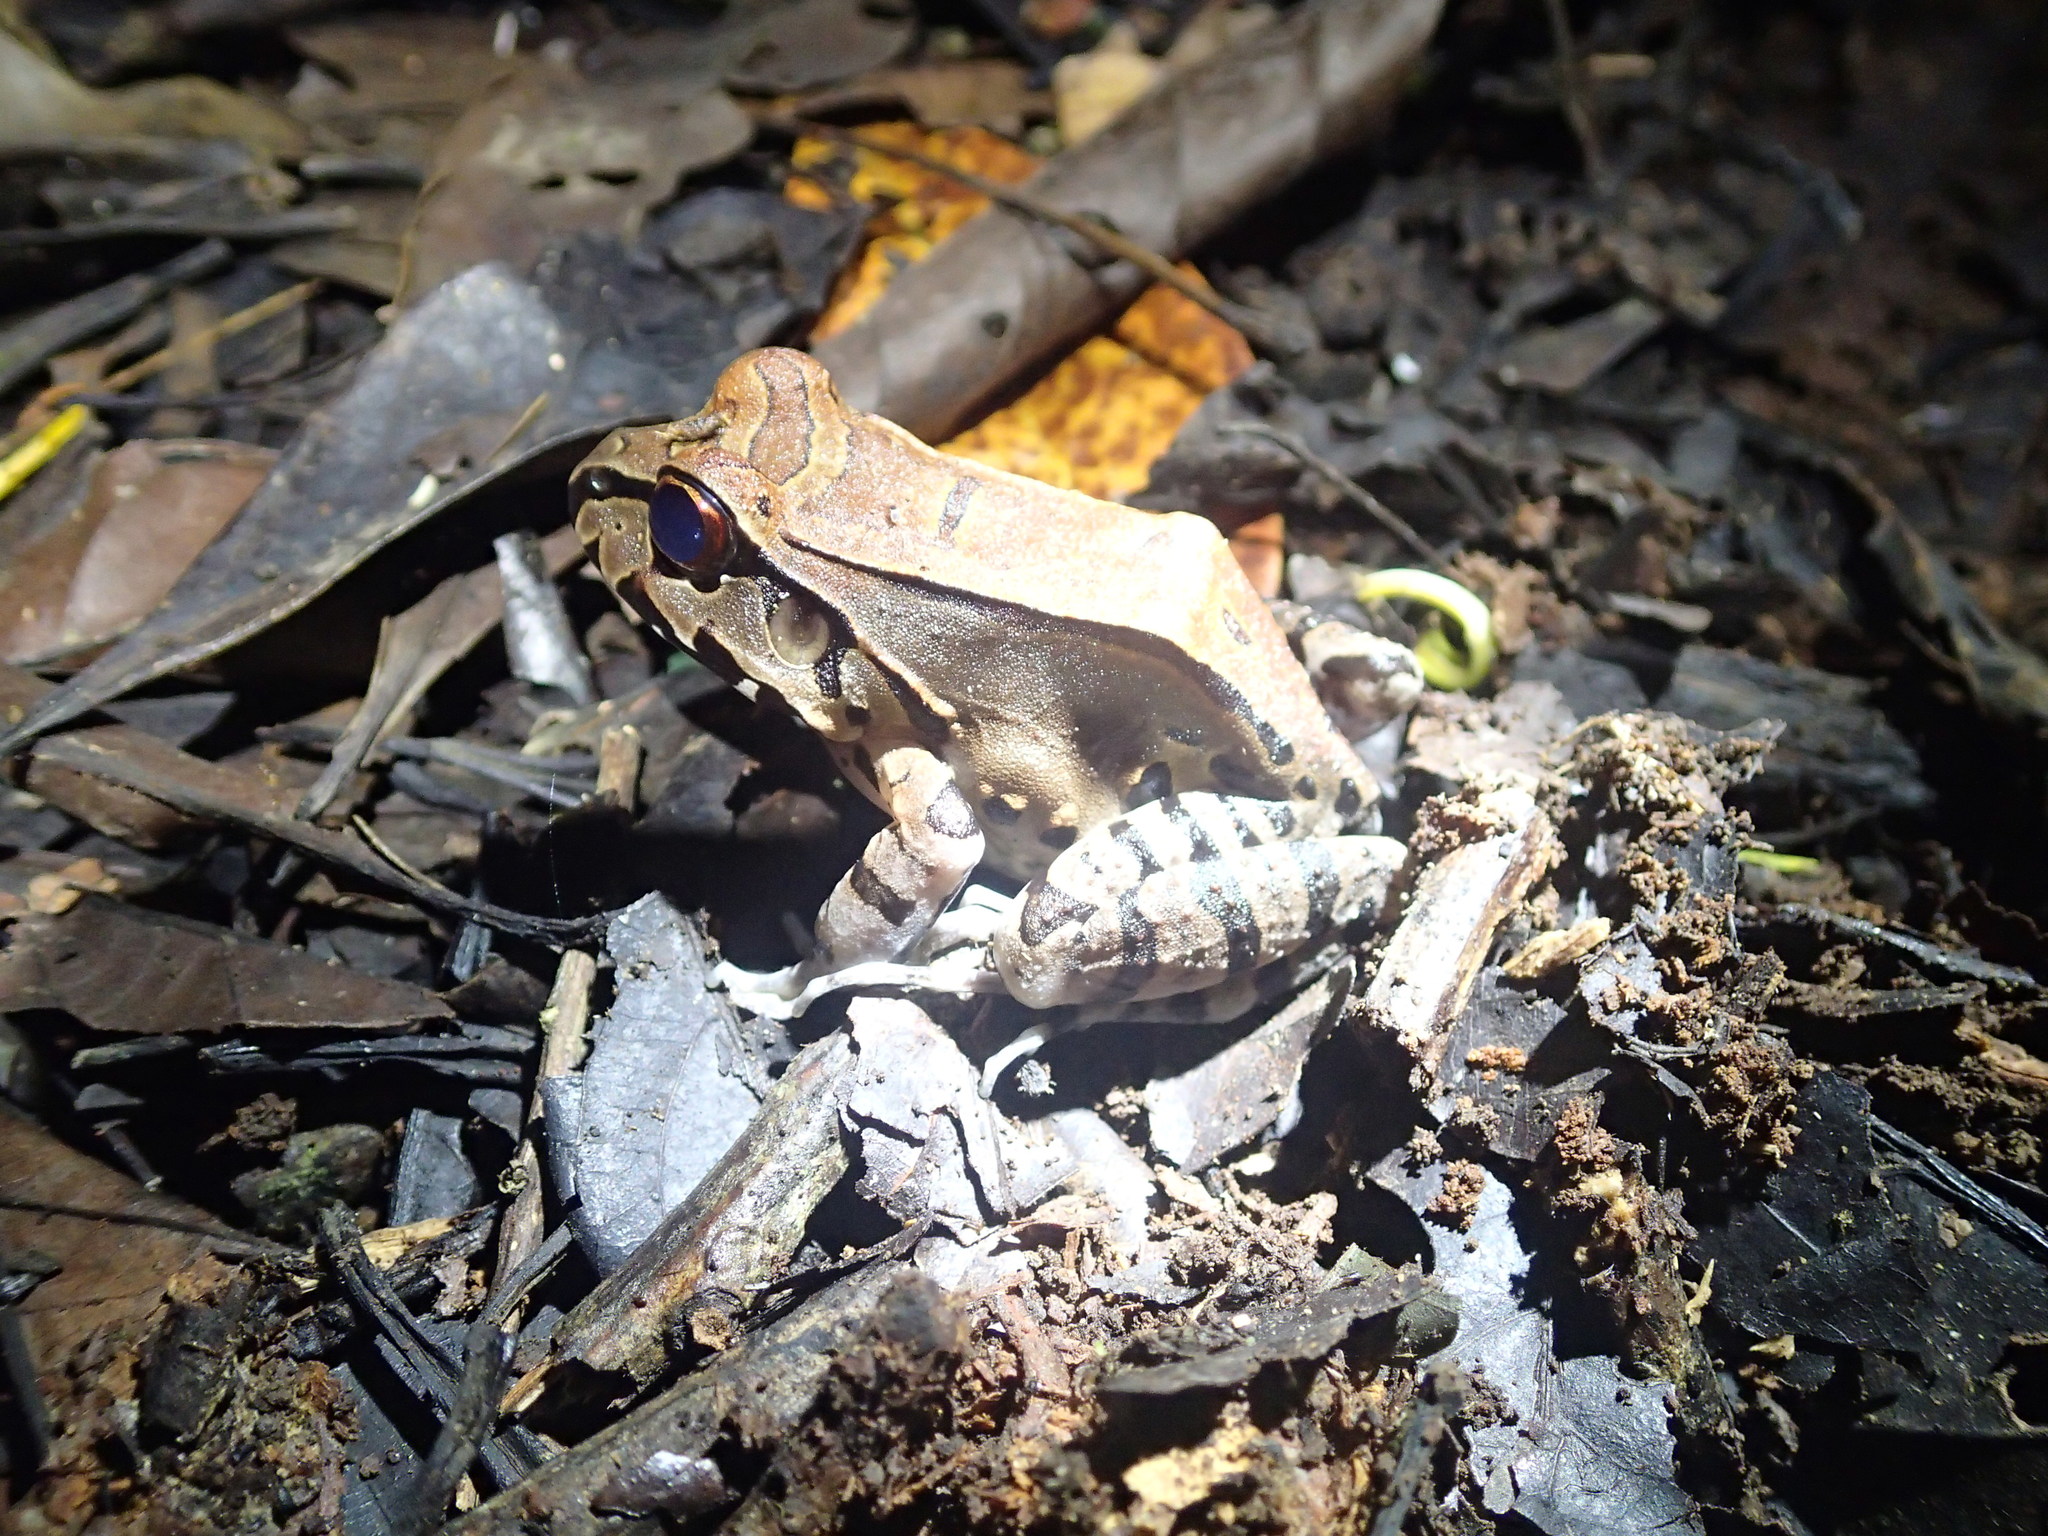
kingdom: Animalia
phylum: Chordata
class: Amphibia
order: Anura
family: Leptodactylidae
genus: Leptodactylus
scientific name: Leptodactylus pentadactylus
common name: Smoky jungle frog
